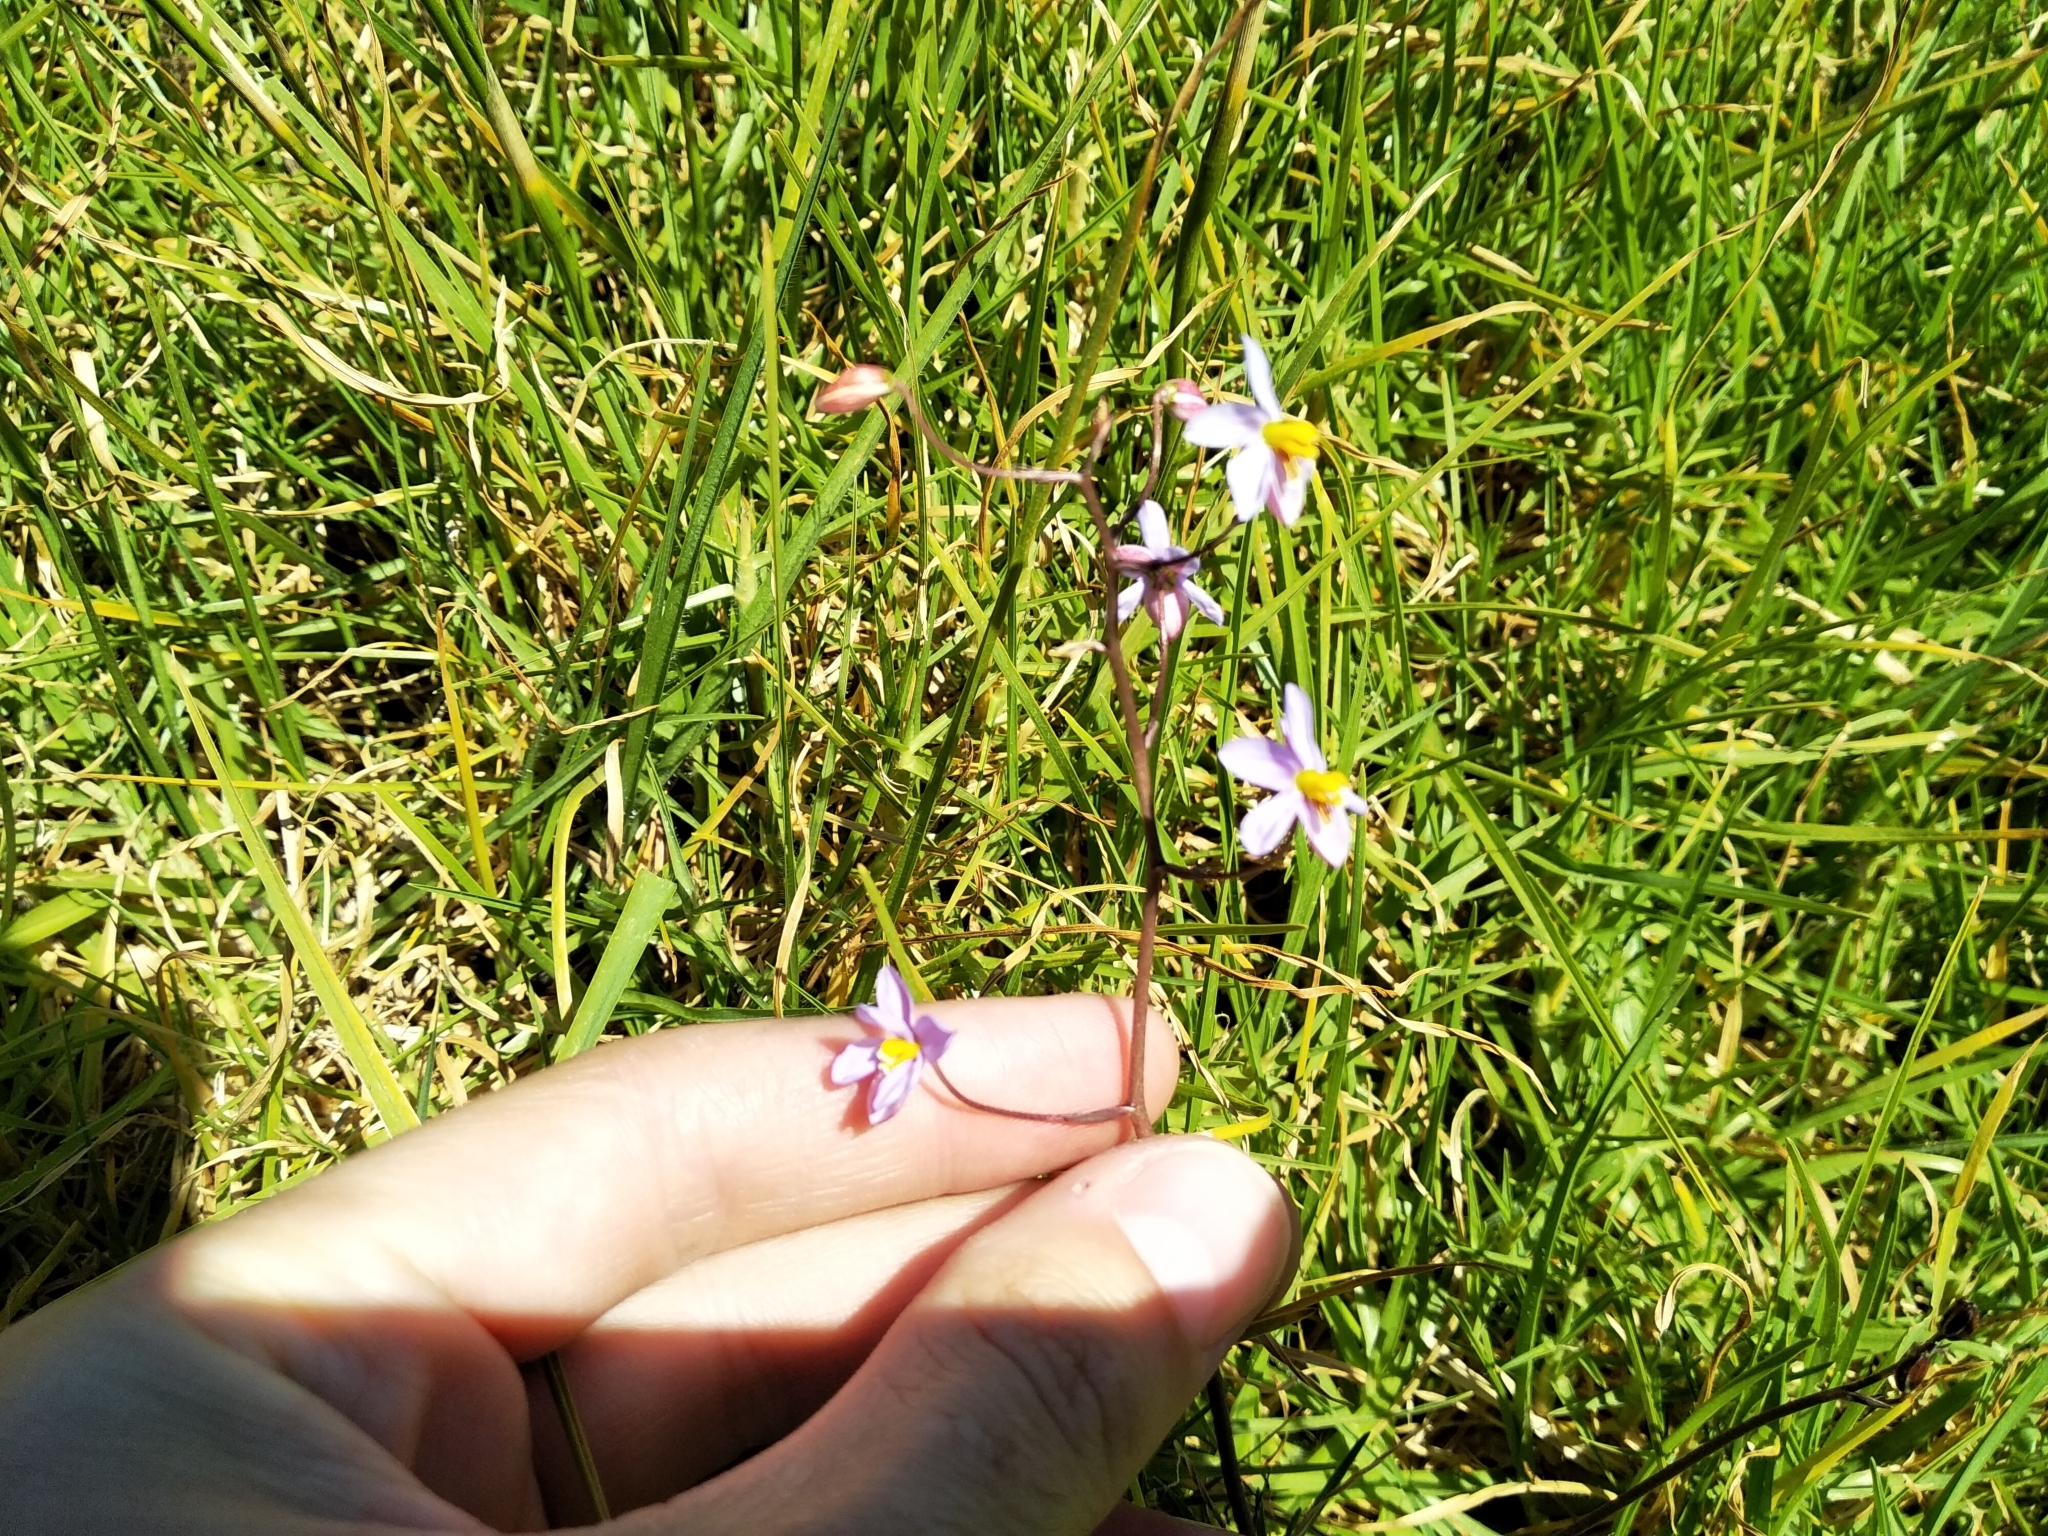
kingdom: Plantae
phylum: Tracheophyta
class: Liliopsida
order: Asparagales
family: Tecophilaeaceae
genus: Cyanella
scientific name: Cyanella hyacinthoides
